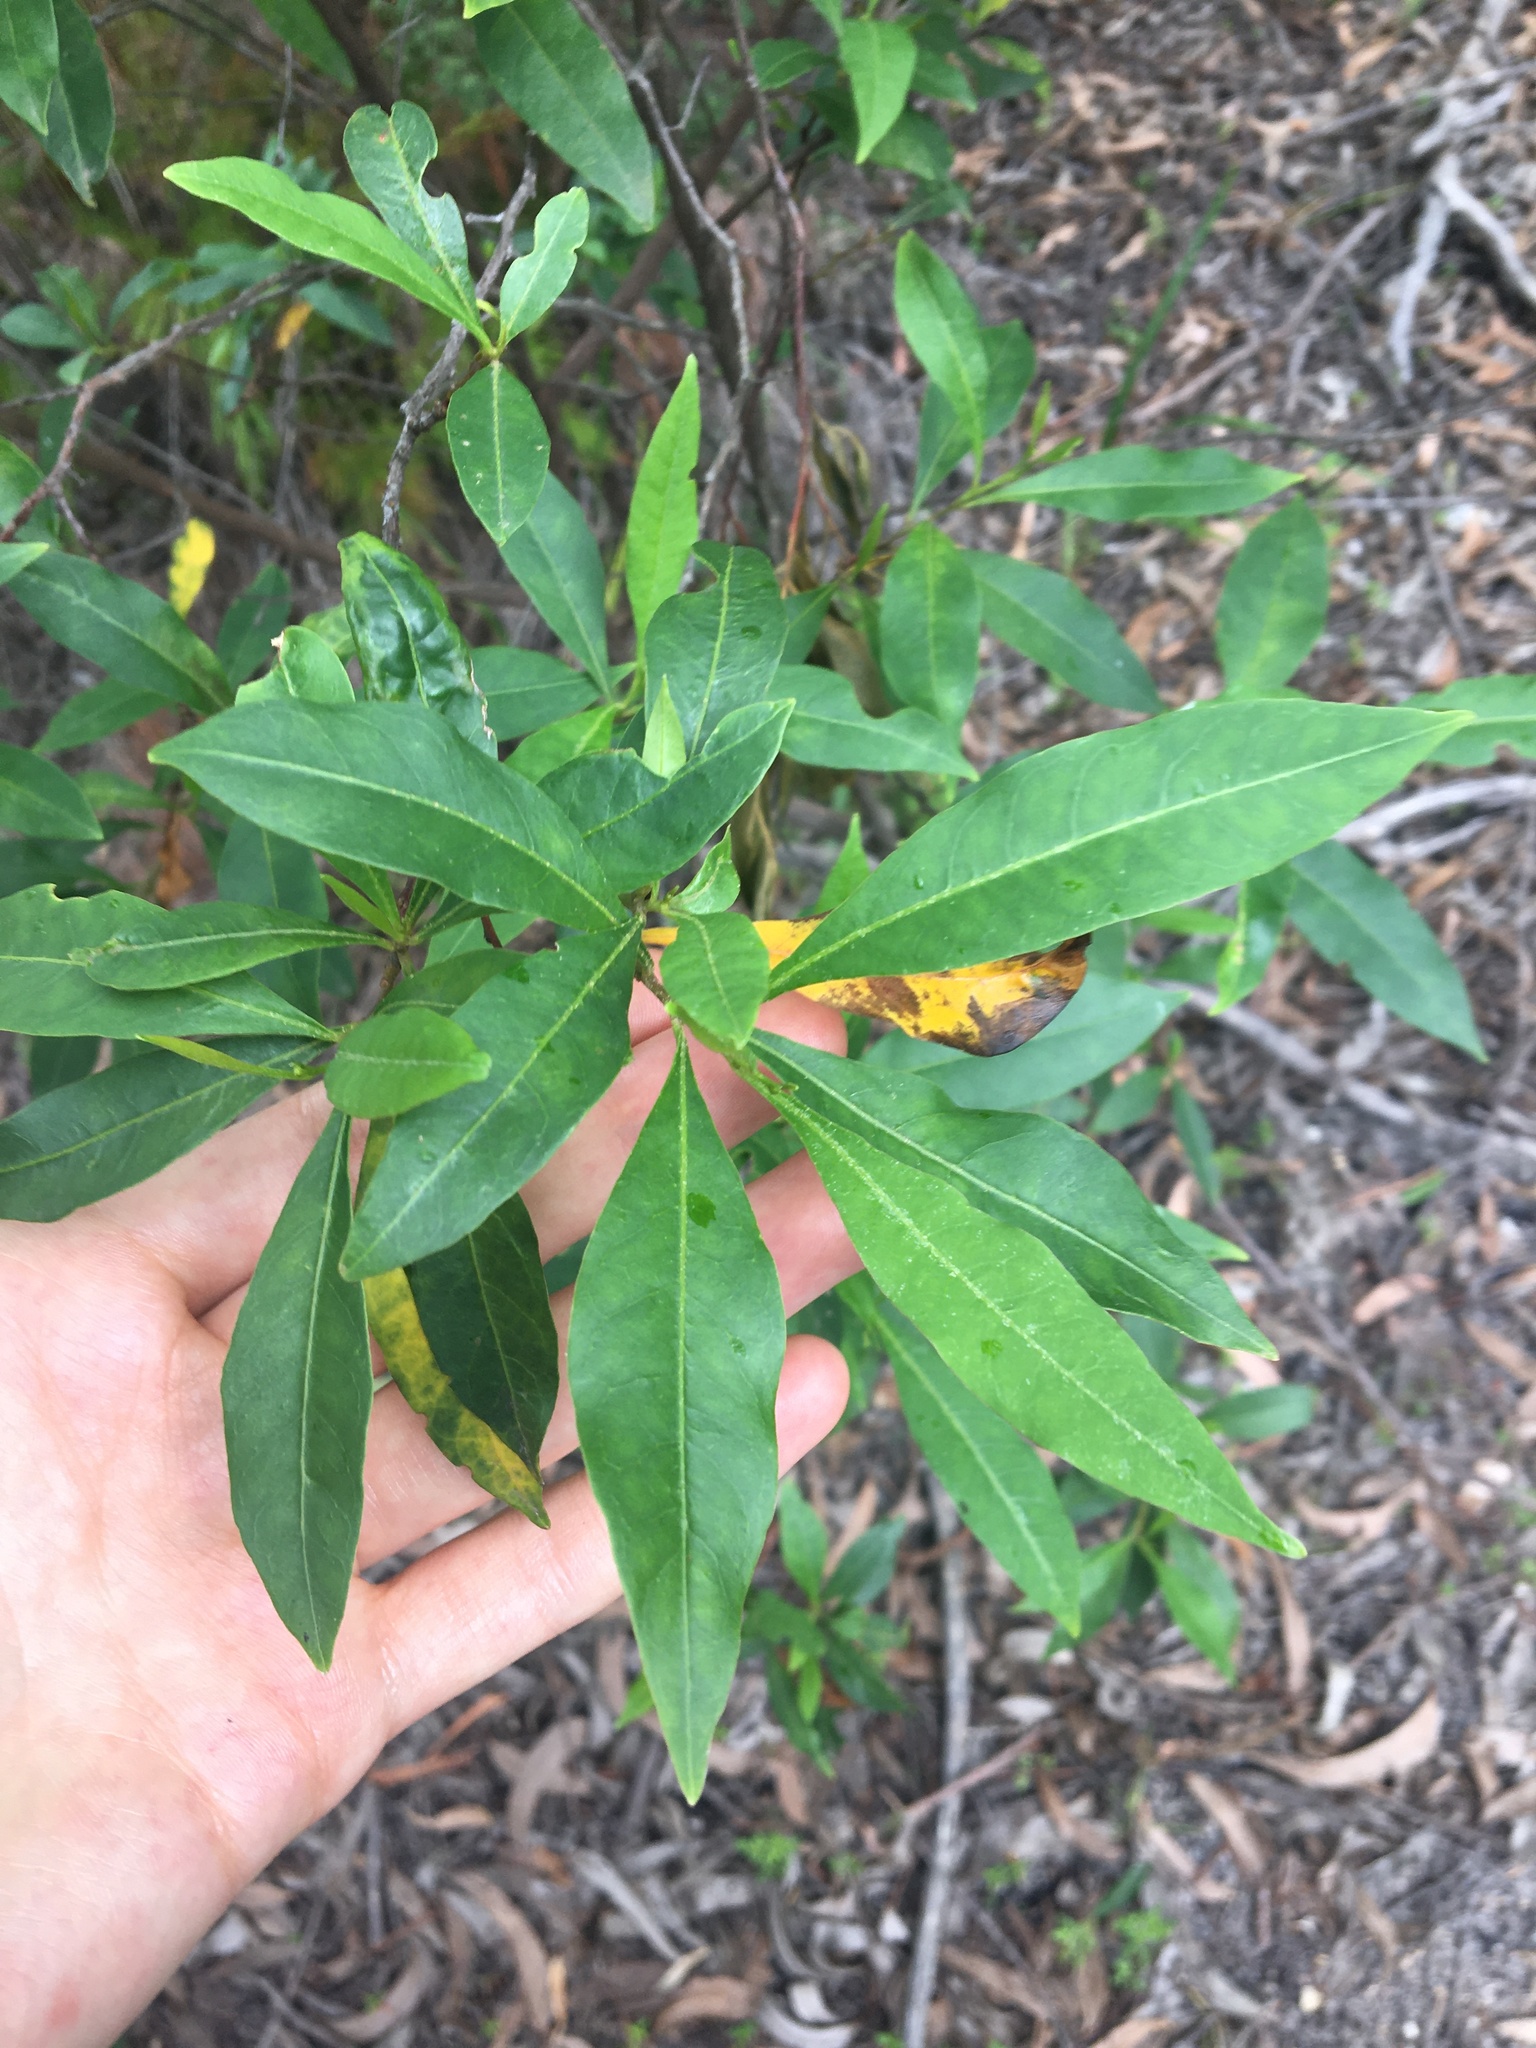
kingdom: Plantae
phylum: Tracheophyta
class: Magnoliopsida
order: Sapindales
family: Sapindaceae
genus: Dodonaea
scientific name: Dodonaea triquetra
